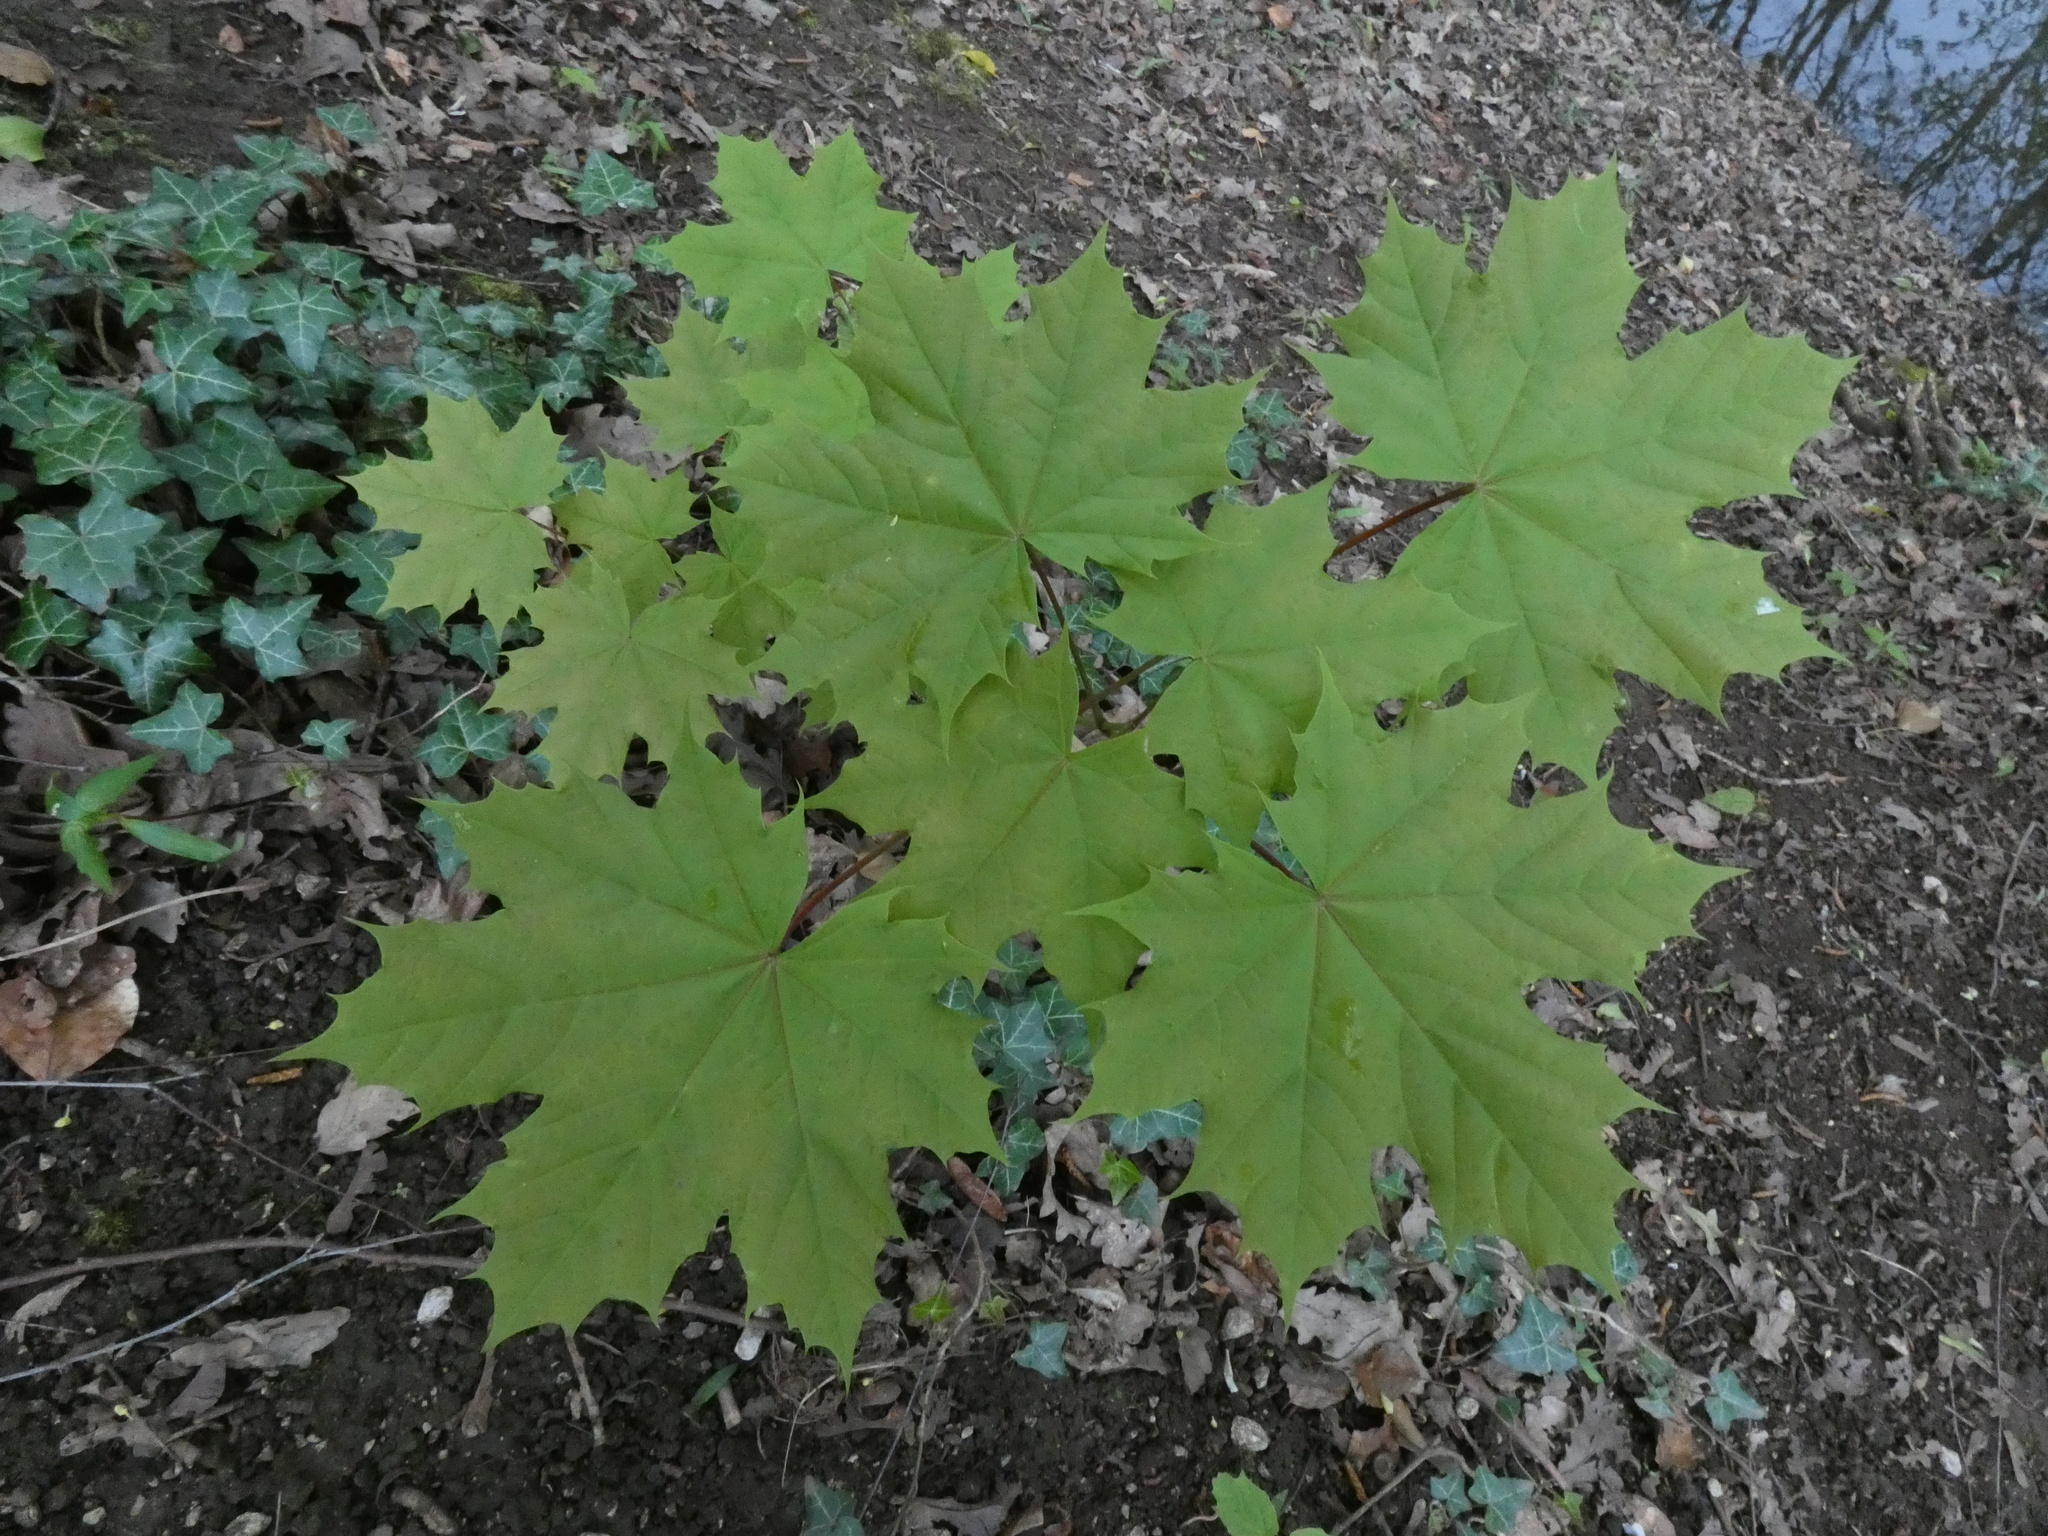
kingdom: Plantae
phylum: Tracheophyta
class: Magnoliopsida
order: Sapindales
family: Sapindaceae
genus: Acer
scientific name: Acer platanoides
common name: Norway maple
